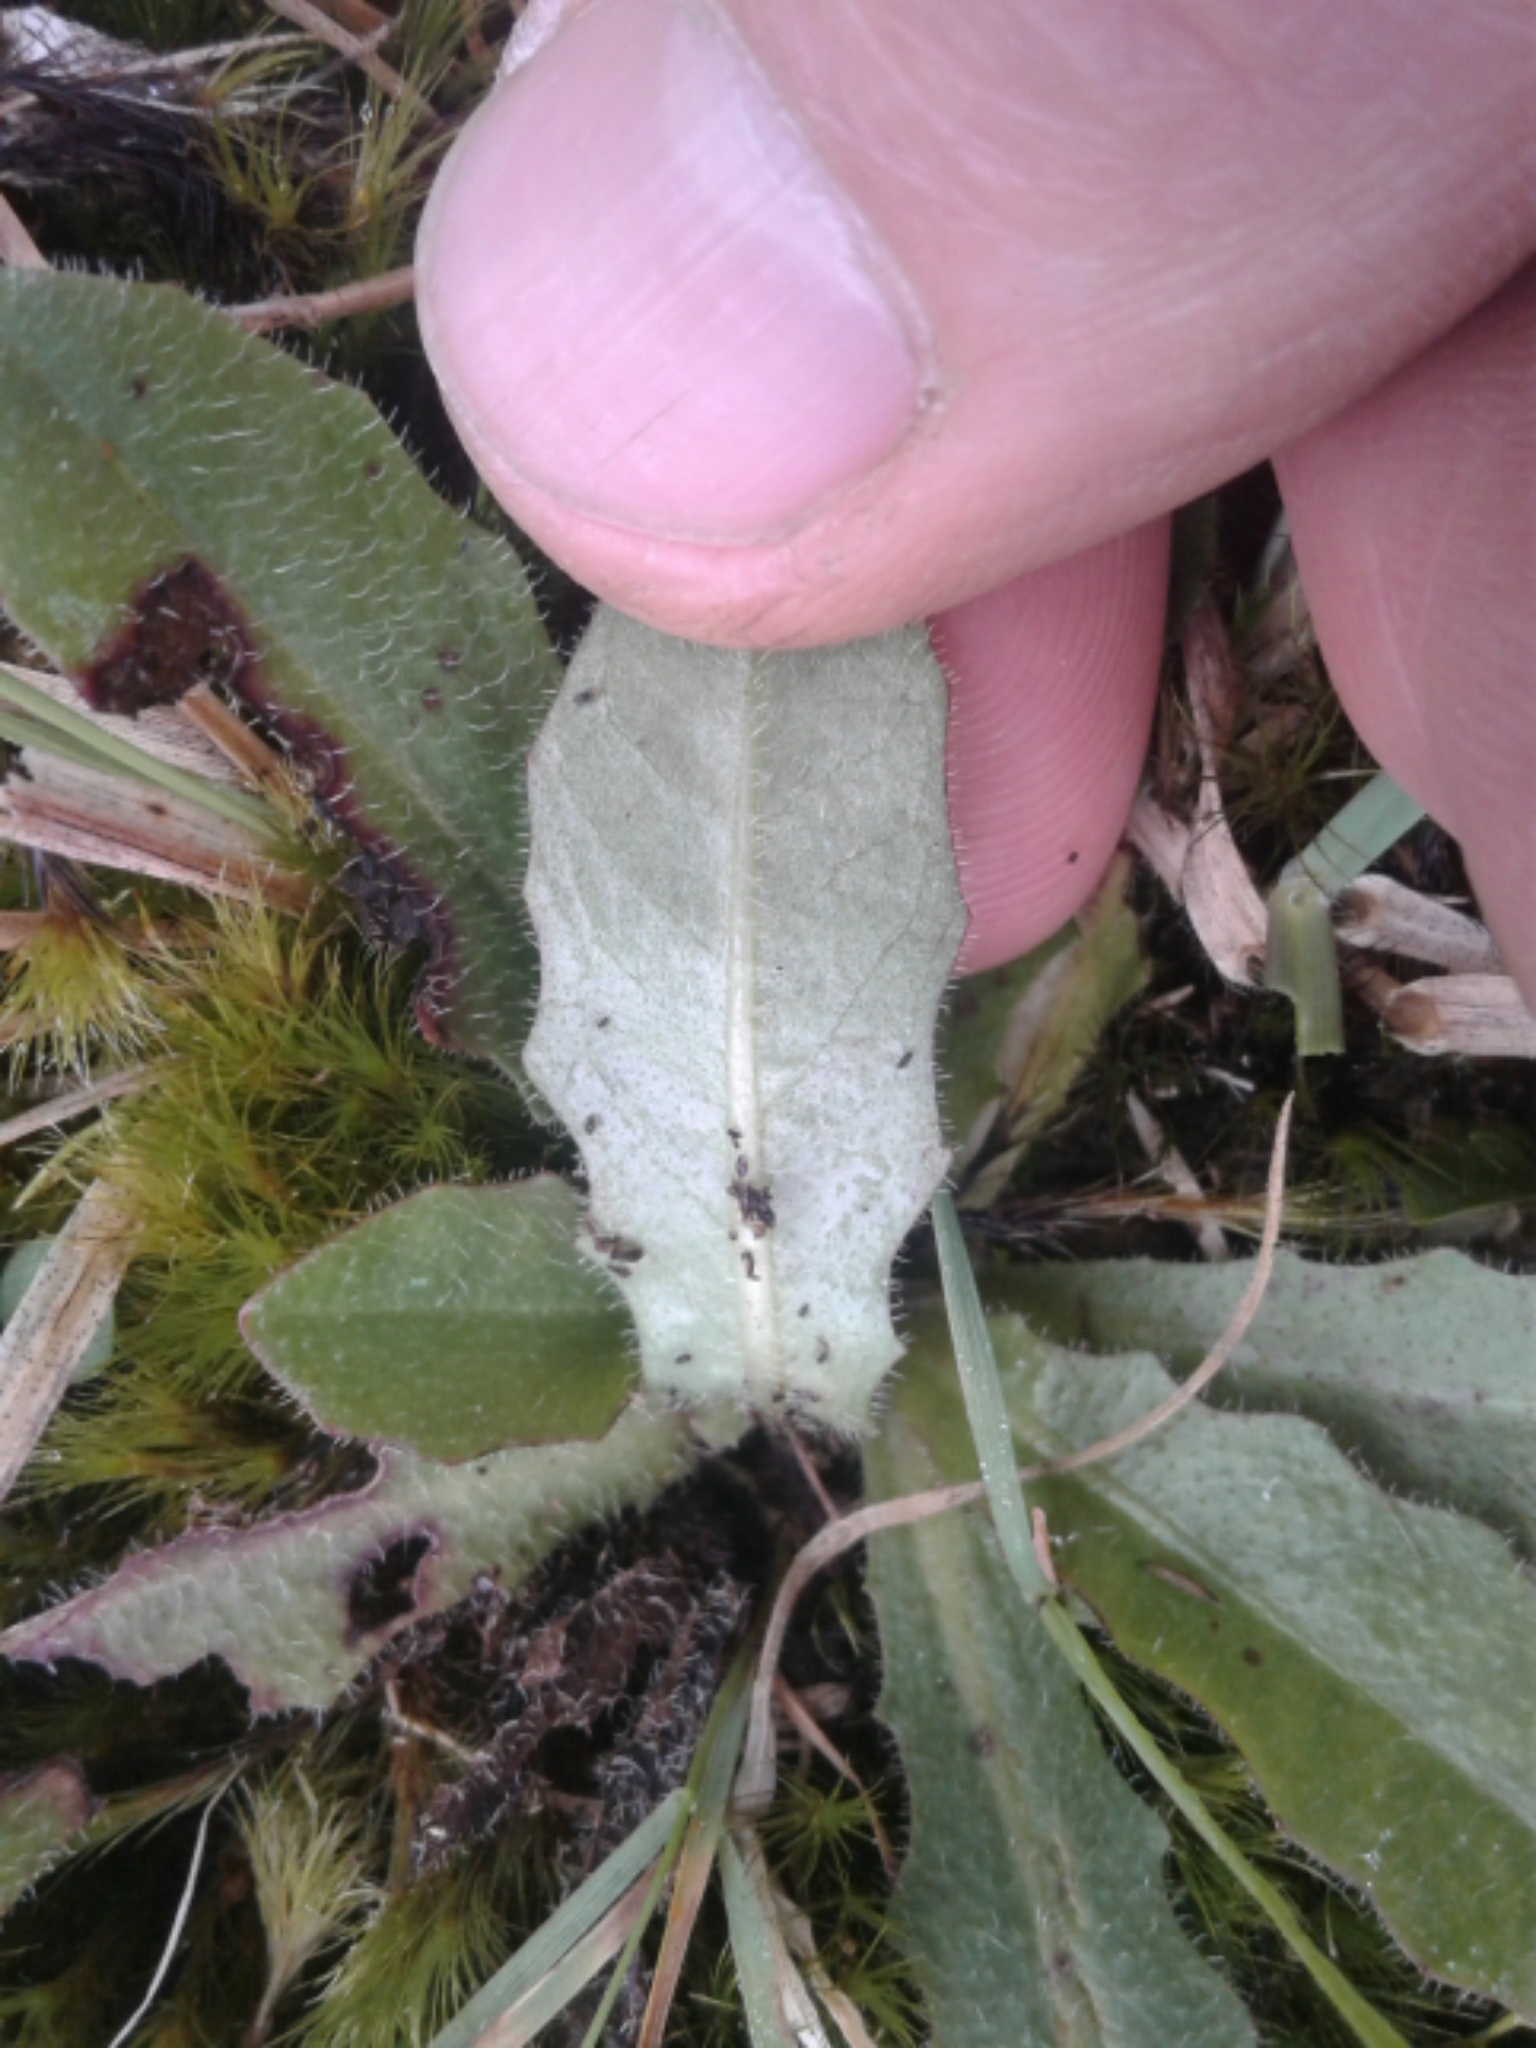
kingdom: Plantae
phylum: Tracheophyta
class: Magnoliopsida
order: Asterales
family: Asteraceae
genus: Thrincia
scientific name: Thrincia saxatilis
